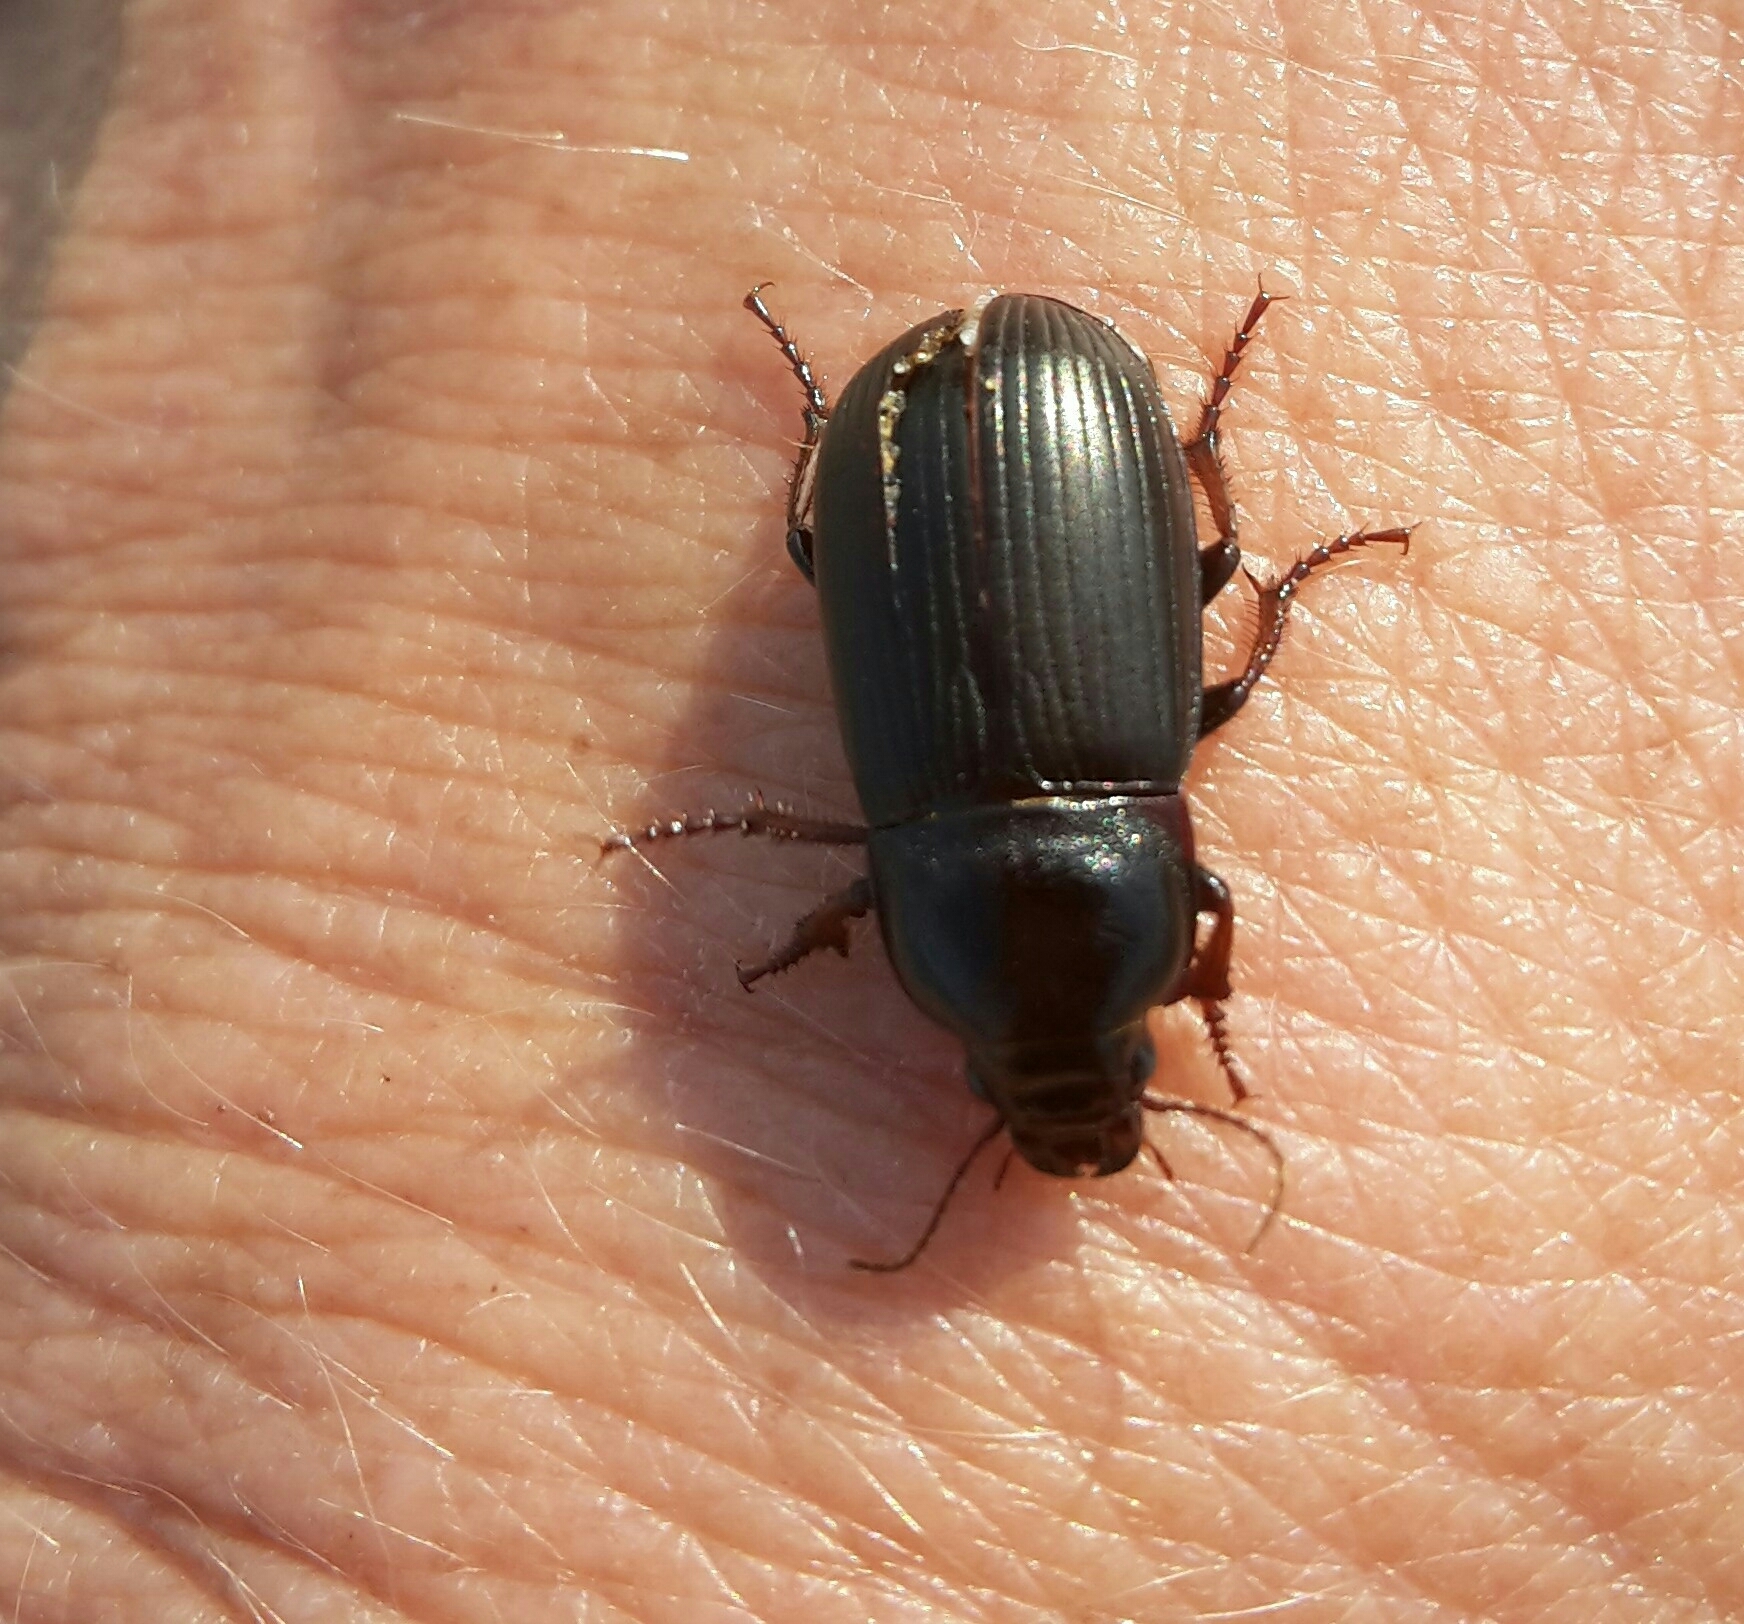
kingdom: Animalia
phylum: Arthropoda
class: Insecta
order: Coleoptera
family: Carabidae
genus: Zabrus
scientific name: Zabrus tenebrioides
